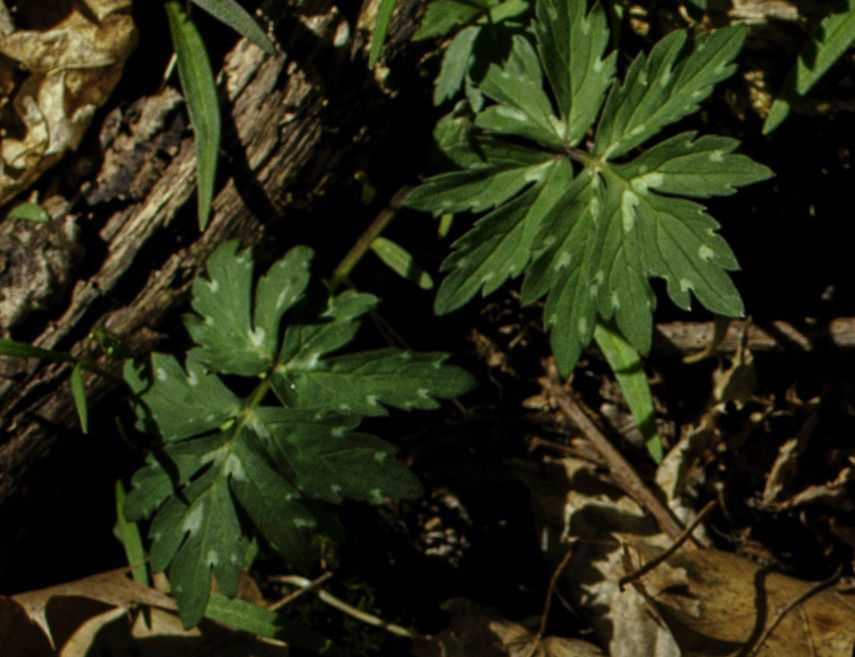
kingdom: Plantae
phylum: Tracheophyta
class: Magnoliopsida
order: Boraginales
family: Hydrophyllaceae
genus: Hydrophyllum
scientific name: Hydrophyllum virginianum
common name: Virginia waterleaf
